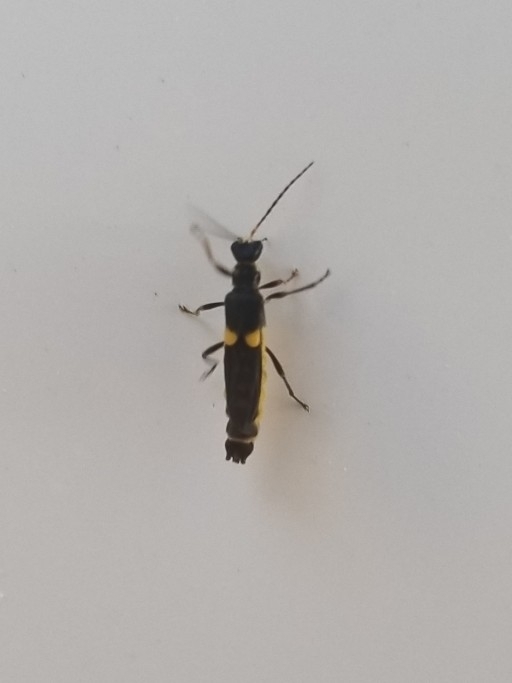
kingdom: Animalia
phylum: Arthropoda
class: Insecta
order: Coleoptera
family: Cantharidae
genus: Trypherus
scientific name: Trypherus
